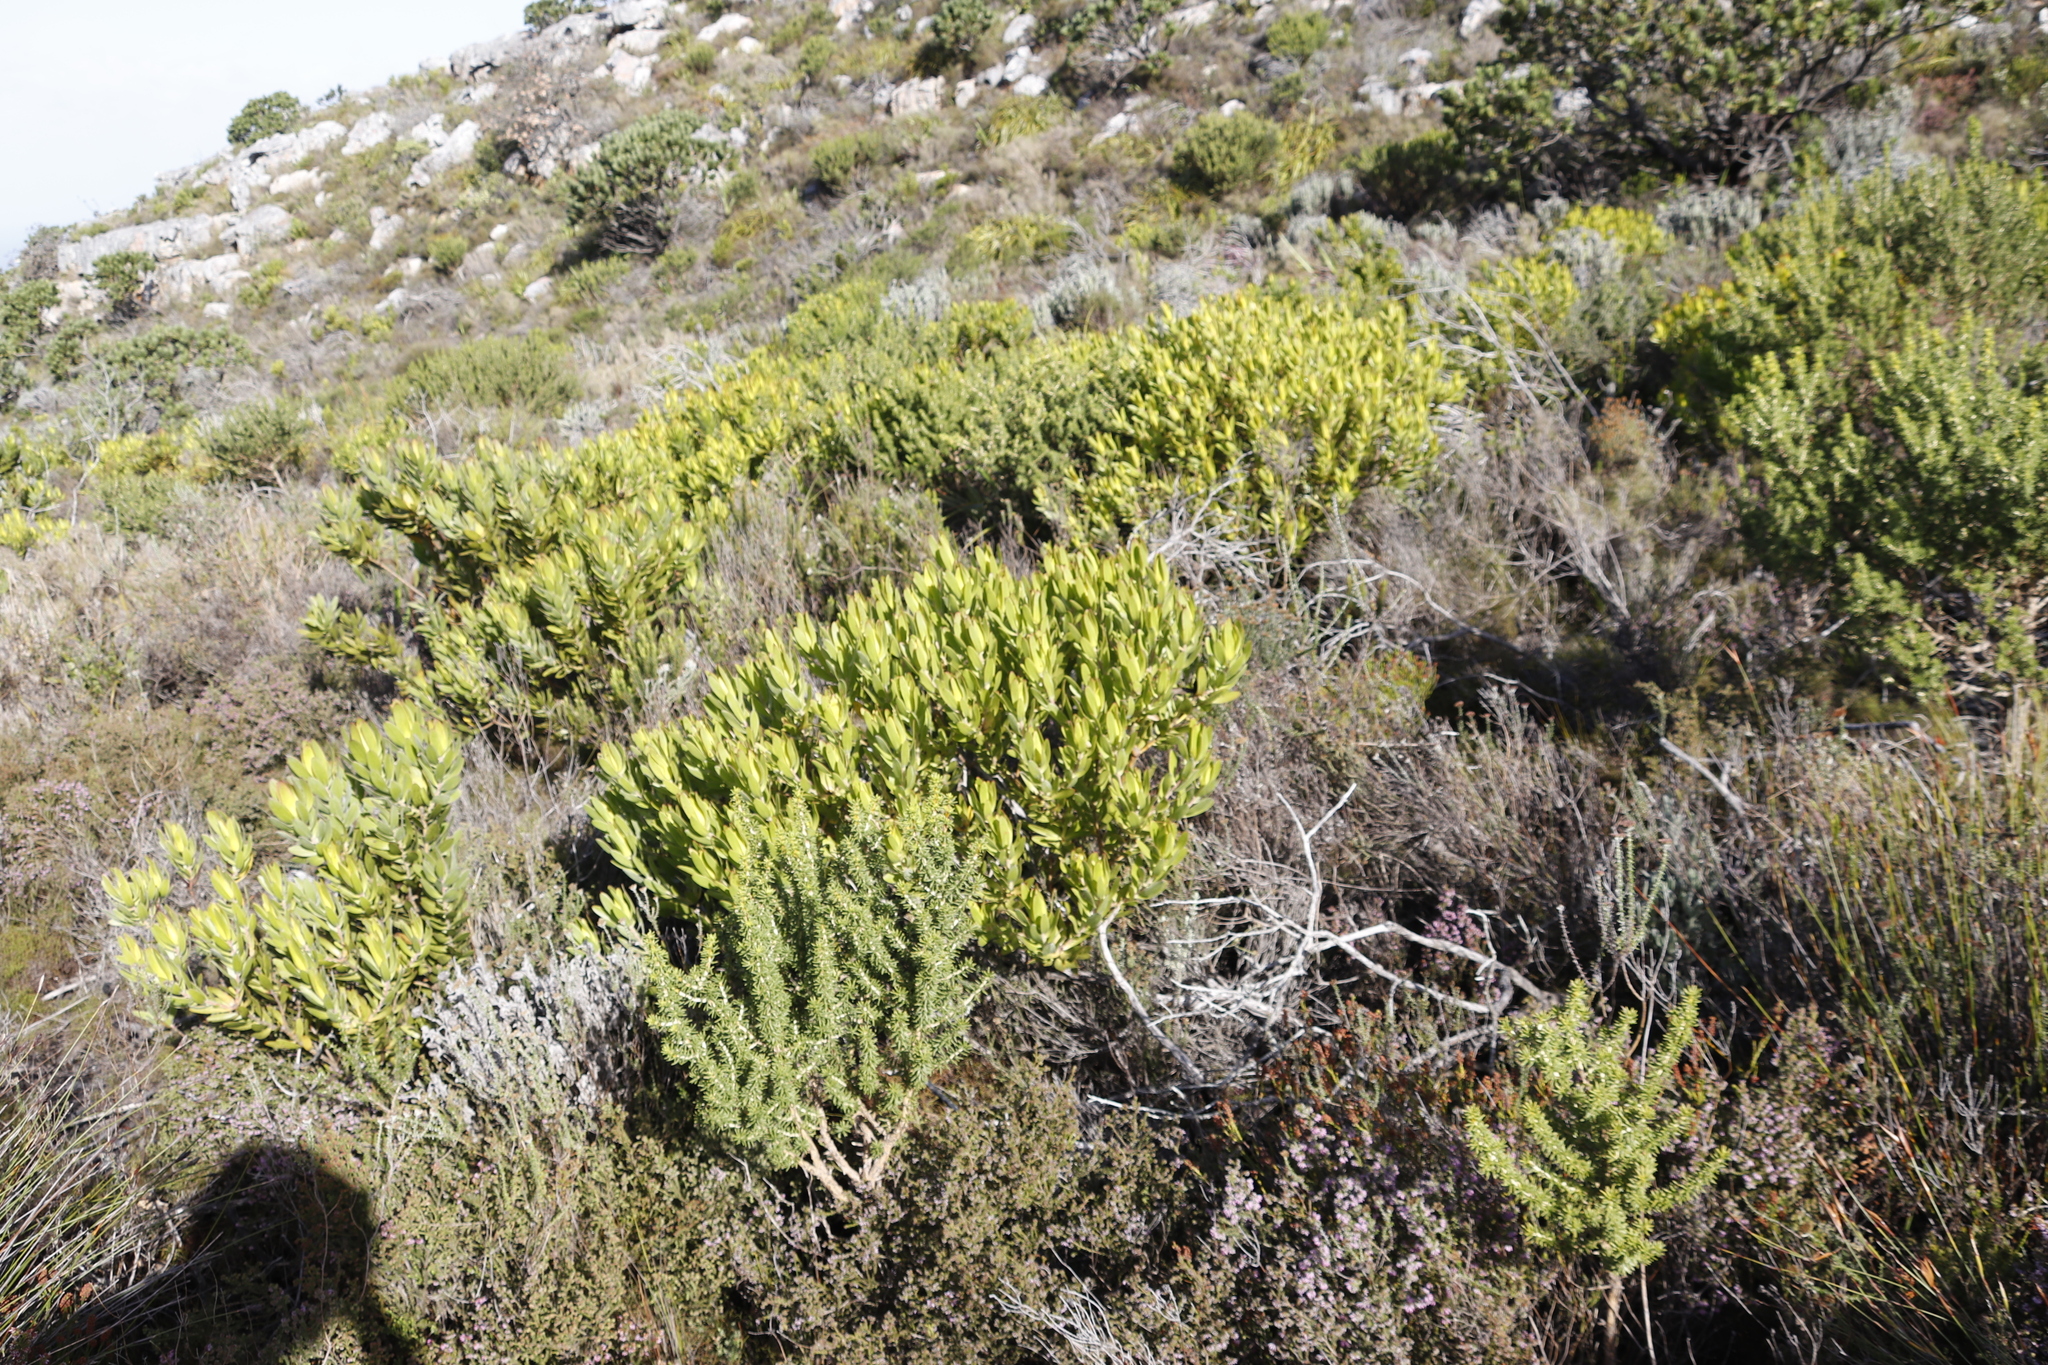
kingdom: Plantae
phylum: Tracheophyta
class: Magnoliopsida
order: Proteales
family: Proteaceae
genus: Leucadendron
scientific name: Leucadendron laureolum
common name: Golden sunshinebush
